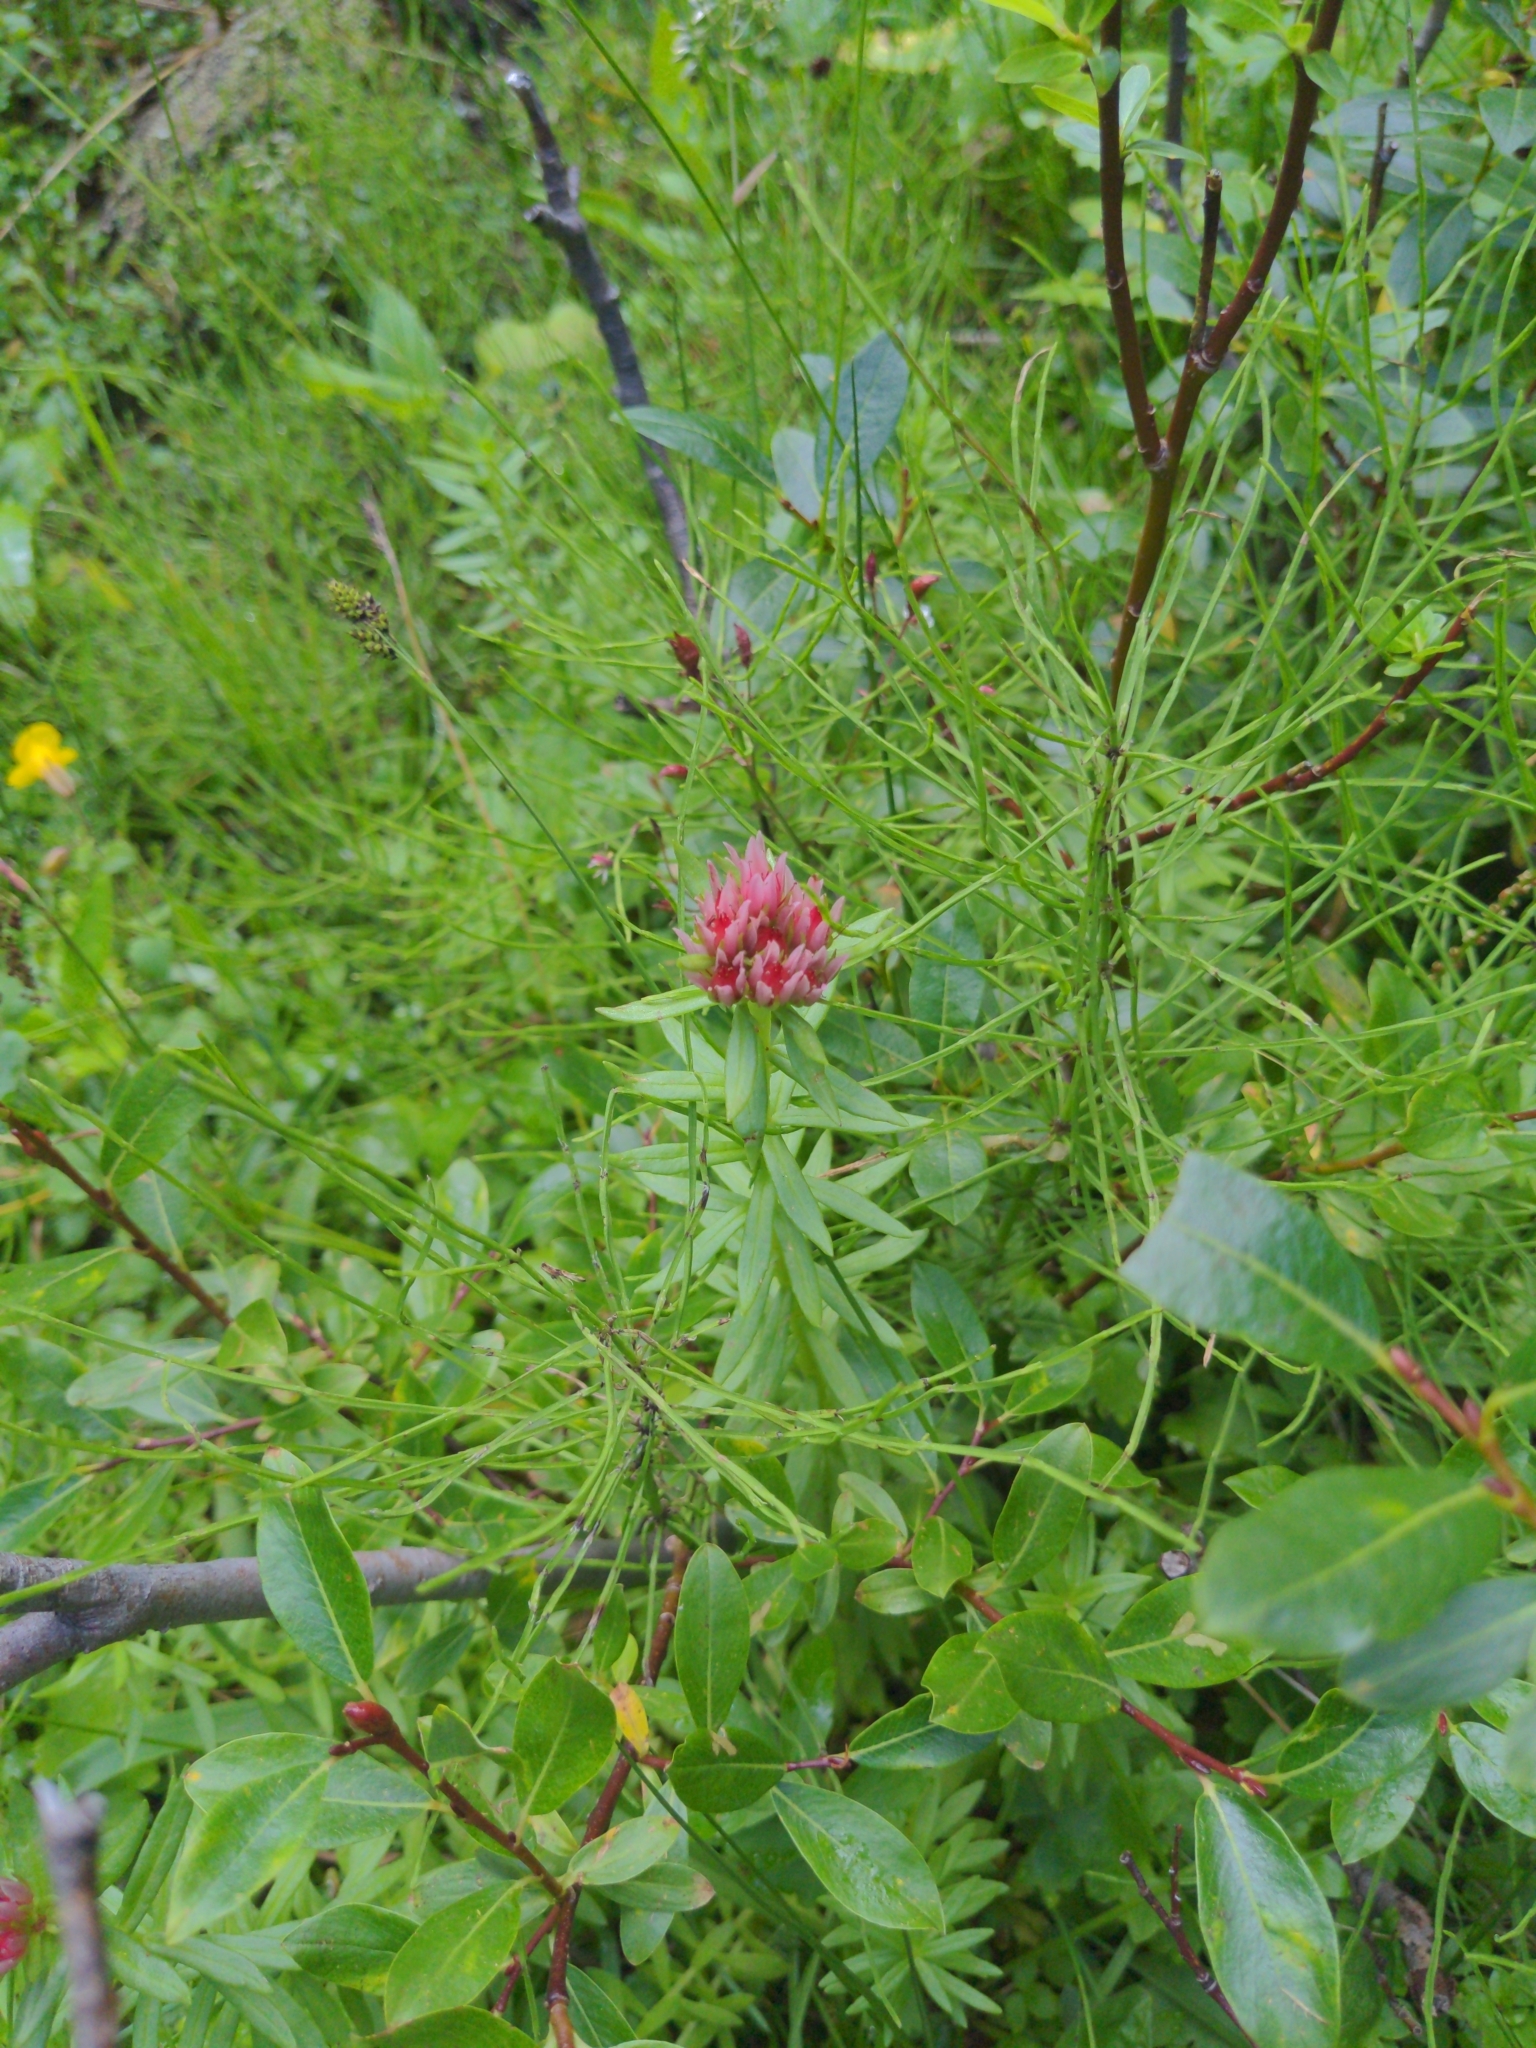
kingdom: Plantae
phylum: Tracheophyta
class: Magnoliopsida
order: Saxifragales
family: Crassulaceae
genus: Rhodiola
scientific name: Rhodiola rhodantha
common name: Red orpine
